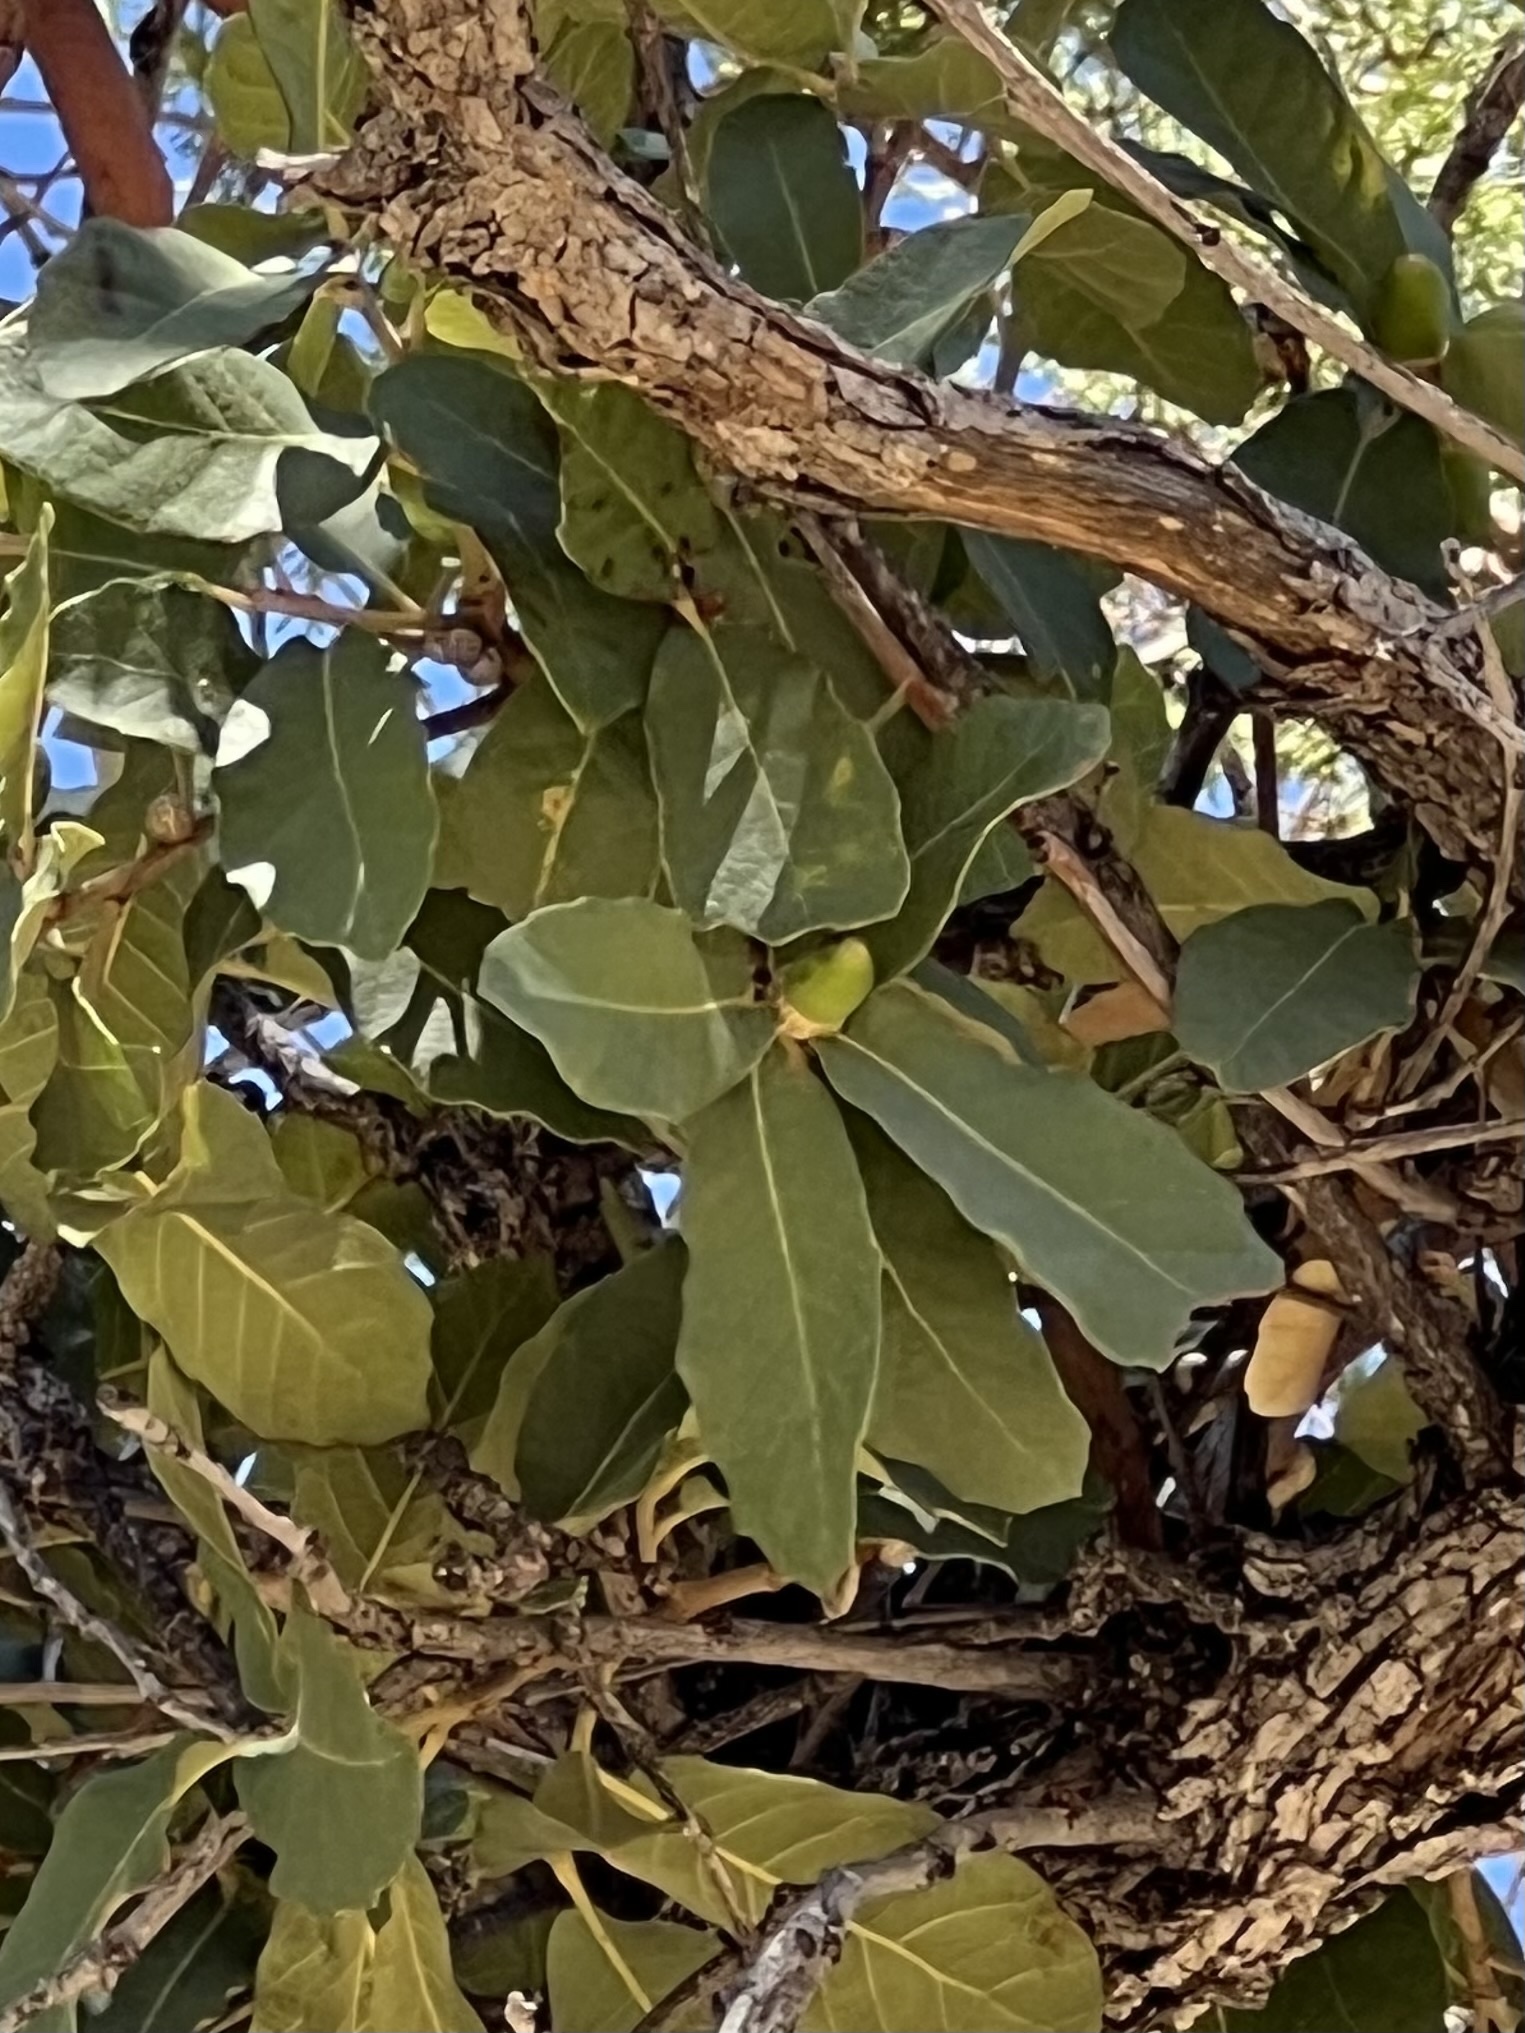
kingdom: Plantae
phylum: Tracheophyta
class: Magnoliopsida
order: Fagales
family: Fagaceae
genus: Quercus
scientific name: Quercus arizonica
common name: Arizona white oak
